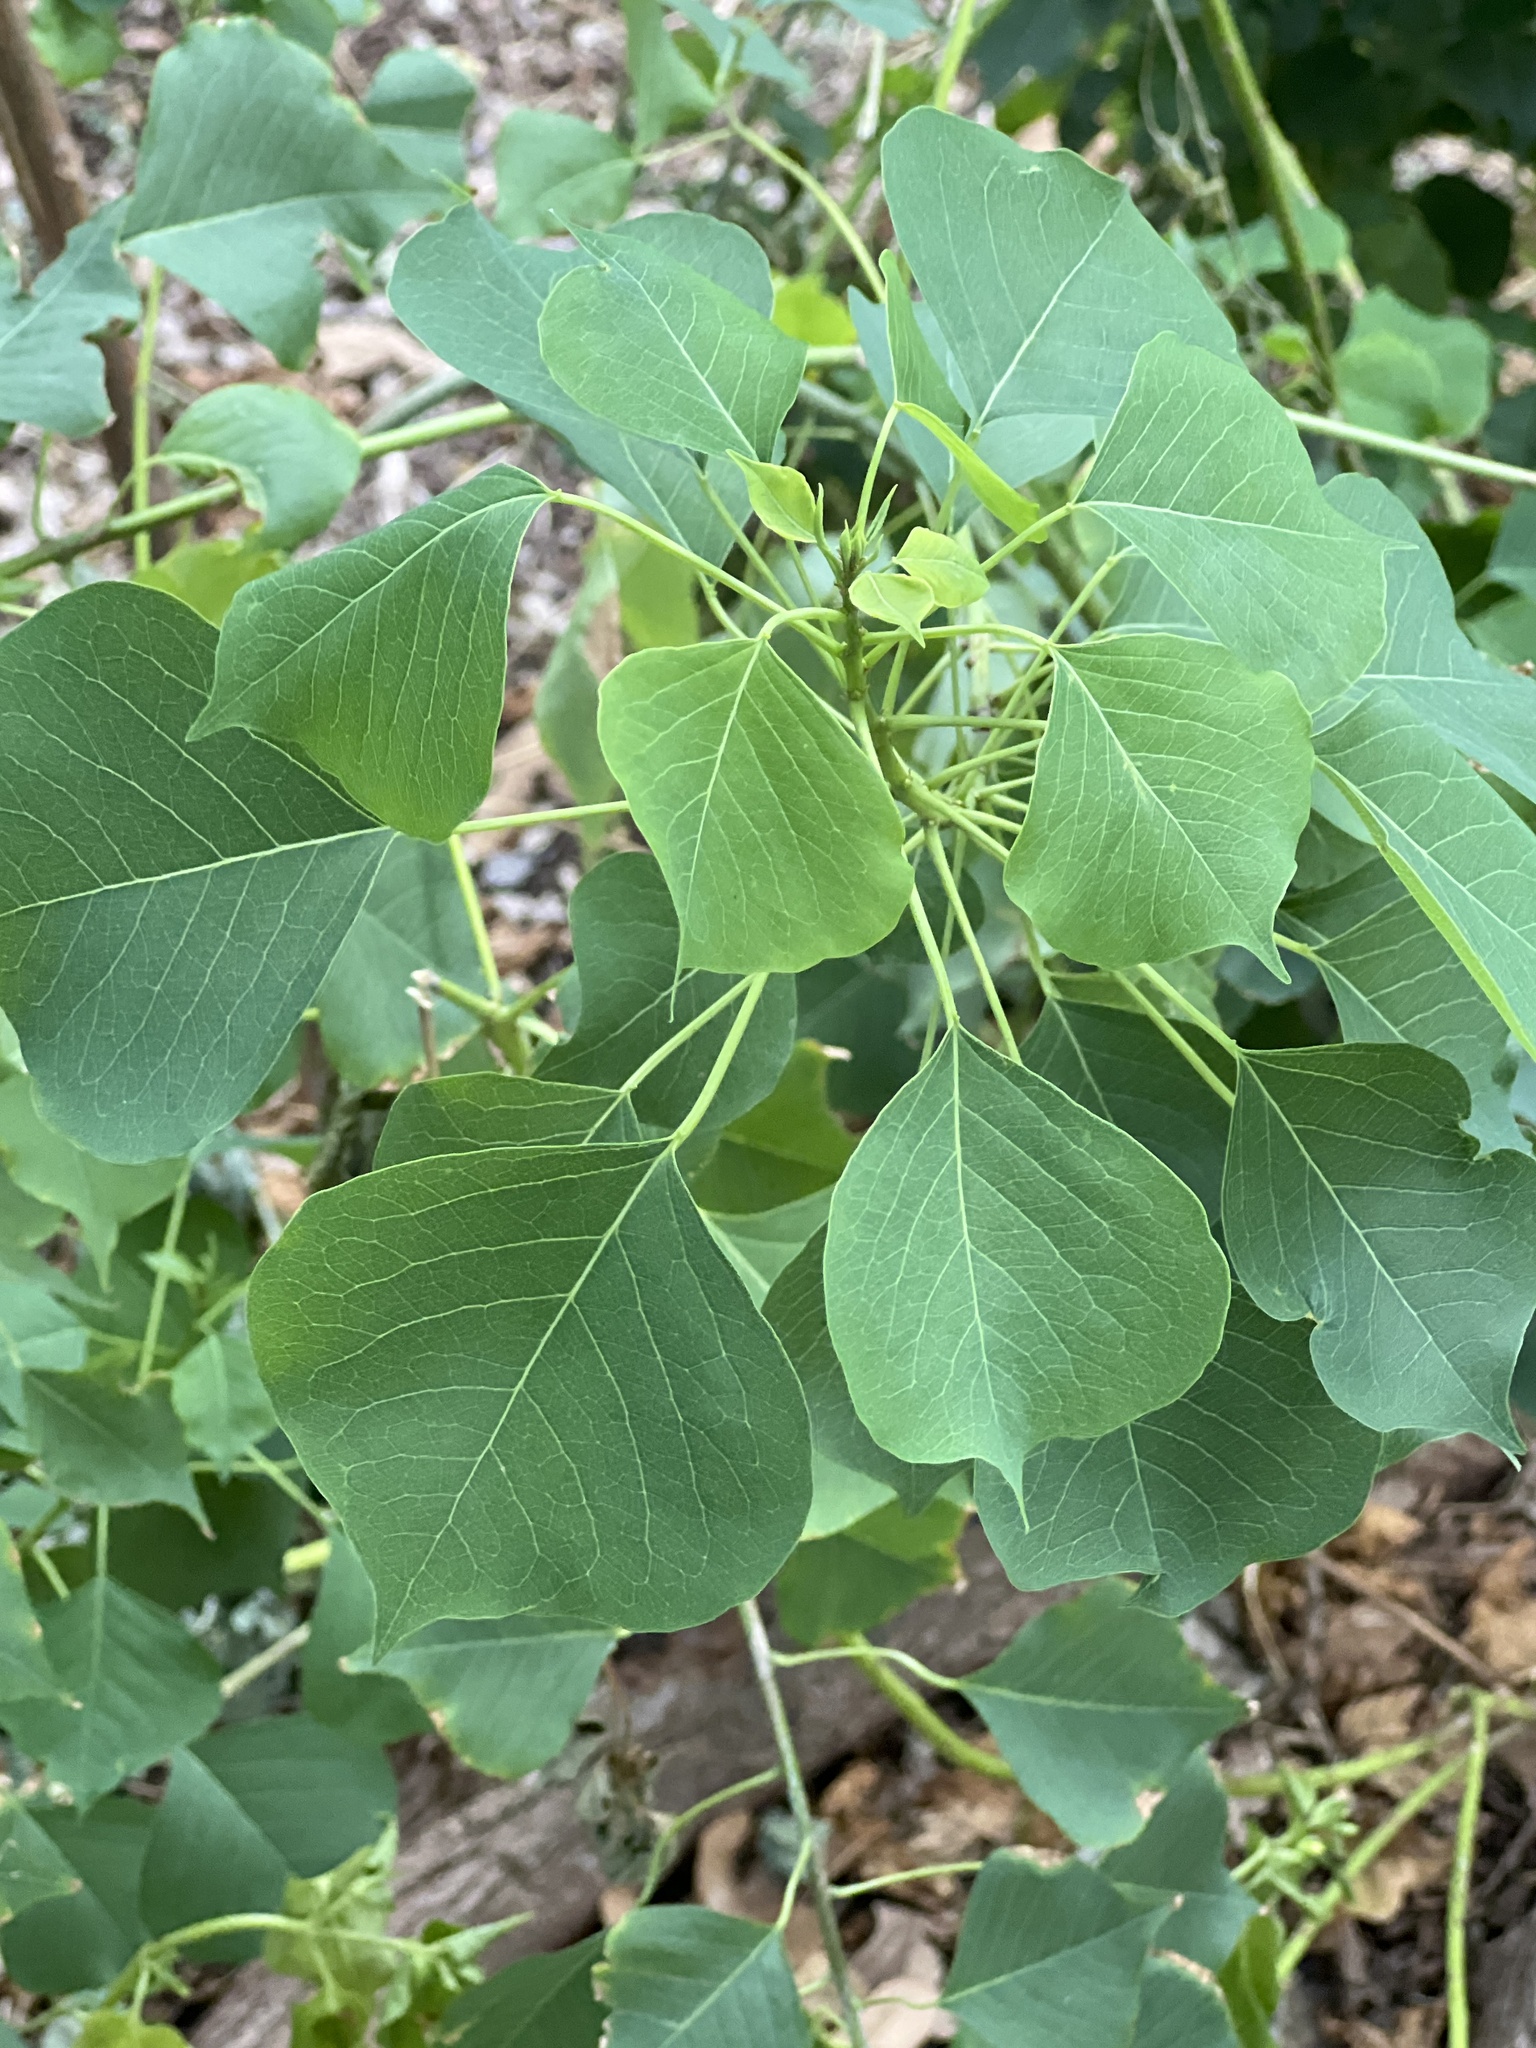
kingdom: Plantae
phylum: Tracheophyta
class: Magnoliopsida
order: Malpighiales
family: Euphorbiaceae
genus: Triadica
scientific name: Triadica sebifera
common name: Chinese tallow
